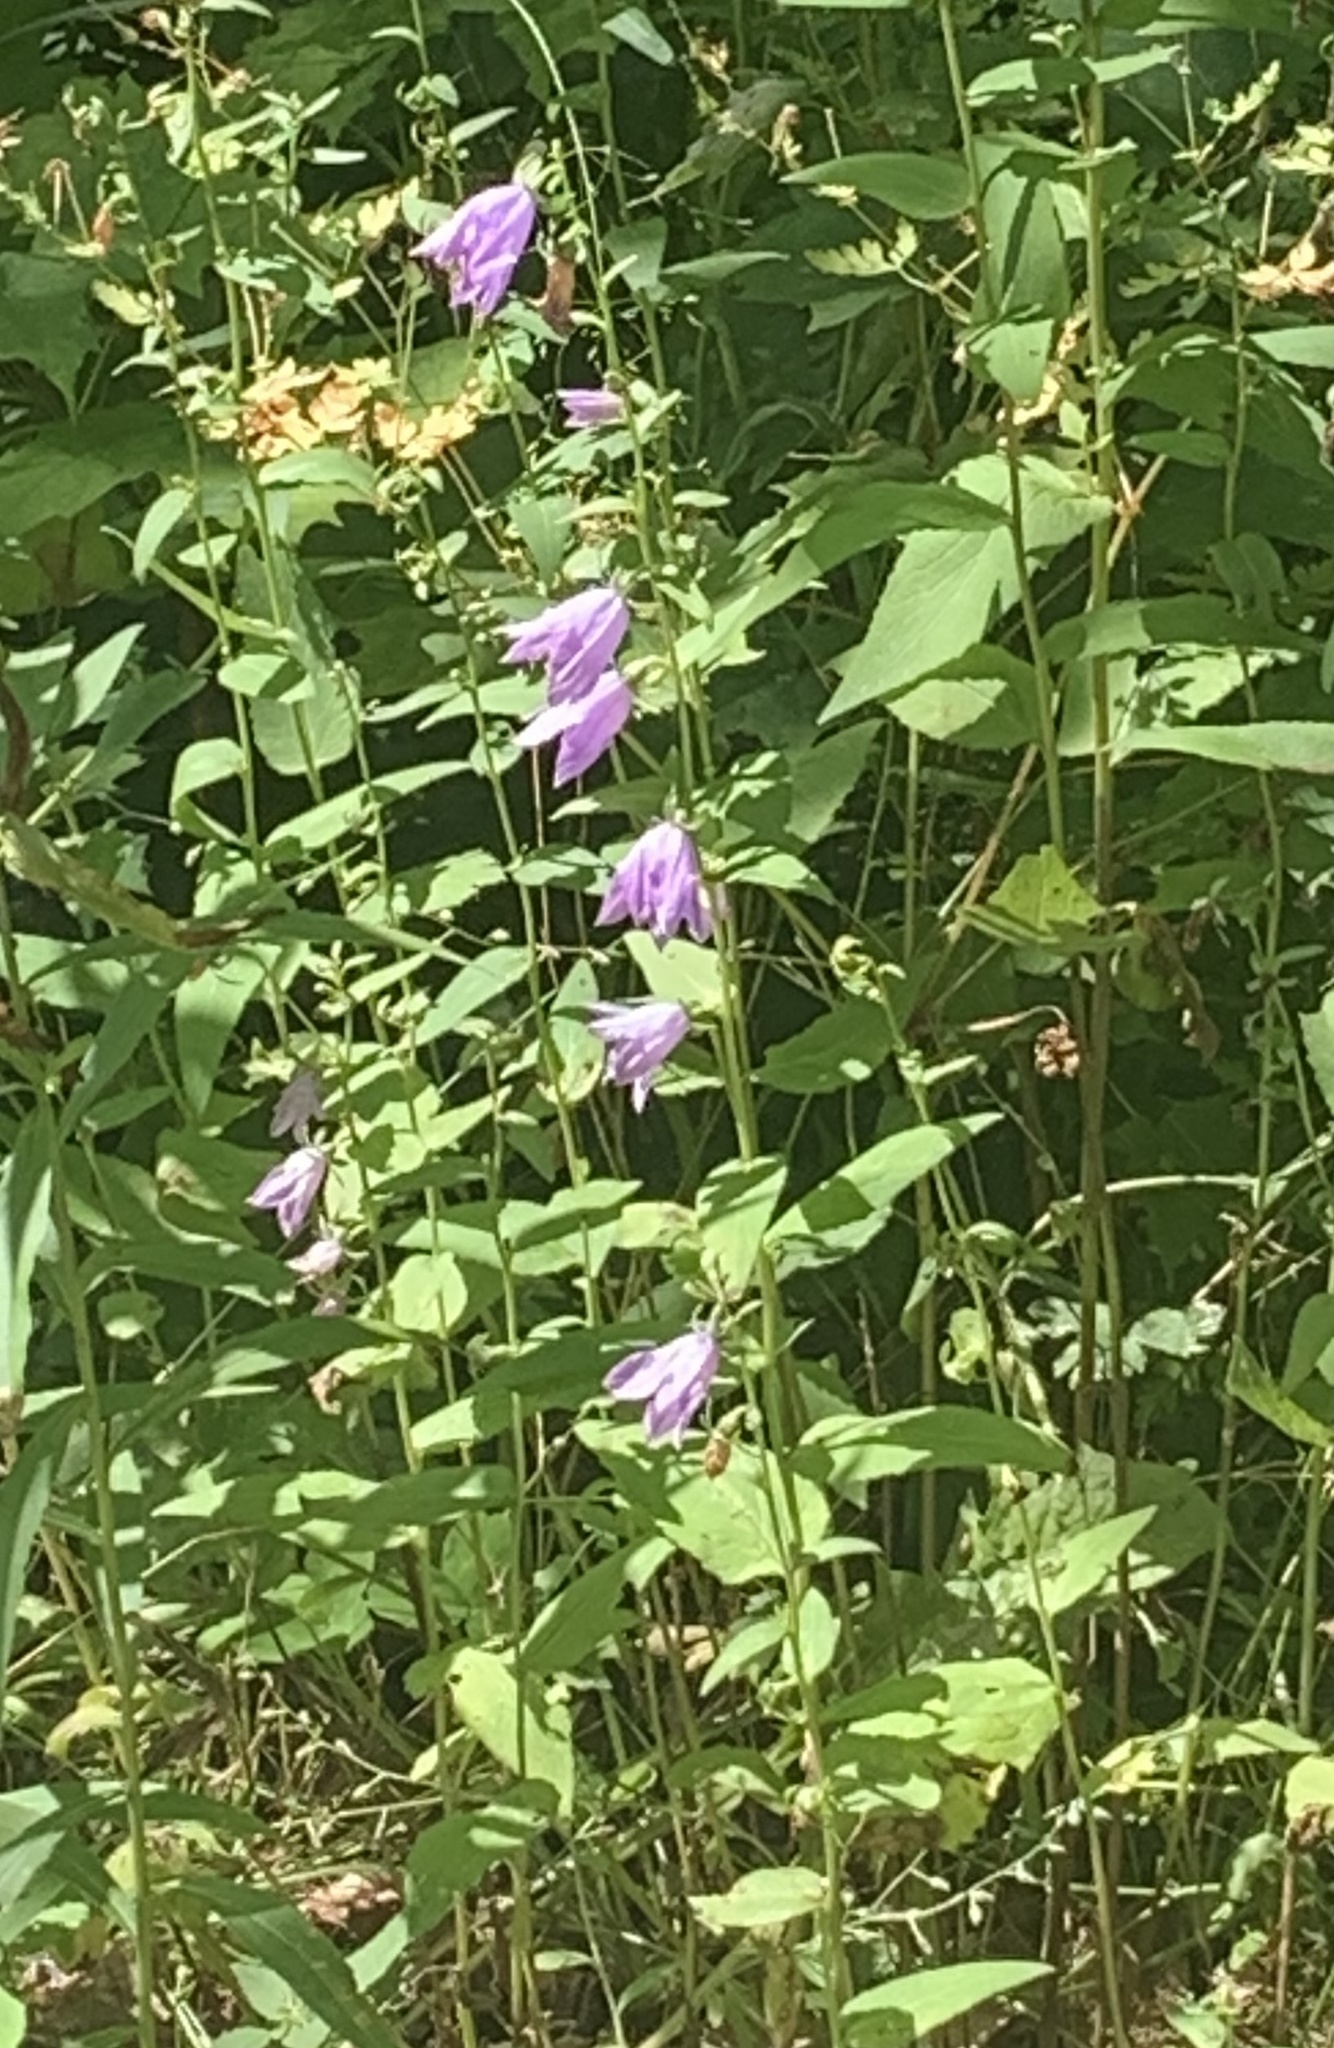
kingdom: Plantae
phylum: Tracheophyta
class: Magnoliopsida
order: Asterales
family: Campanulaceae
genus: Campanula
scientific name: Campanula rapunculoides
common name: Creeping bellflower
